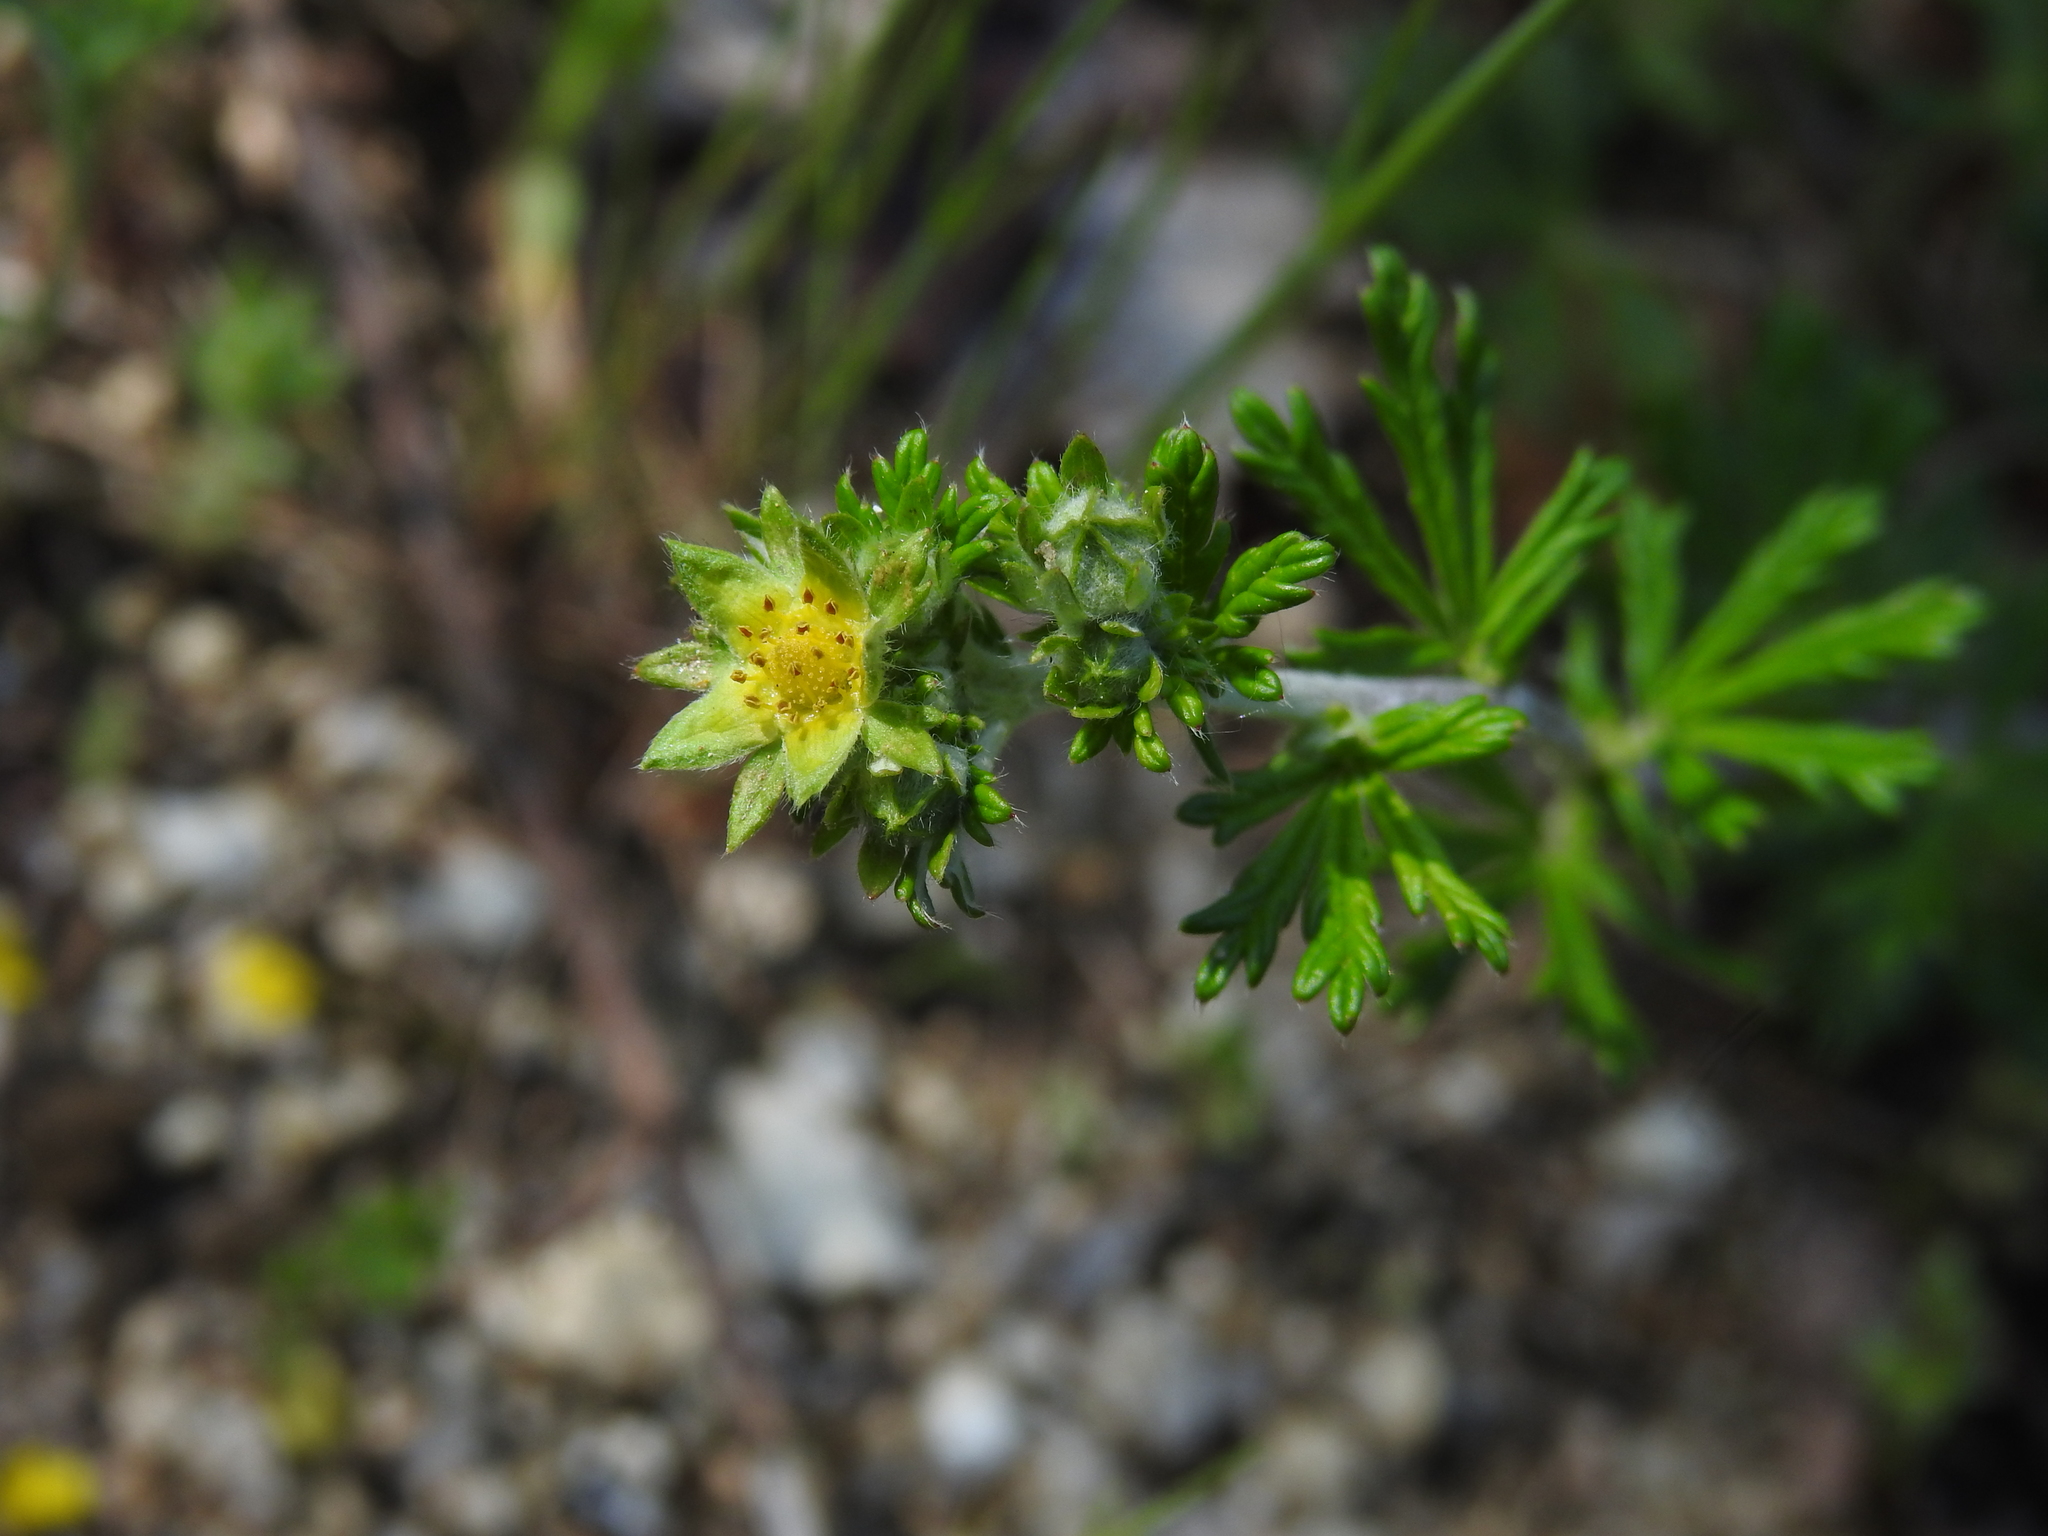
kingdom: Plantae
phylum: Tracheophyta
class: Magnoliopsida
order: Rosales
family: Rosaceae
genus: Potentilla
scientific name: Potentilla neglecta
